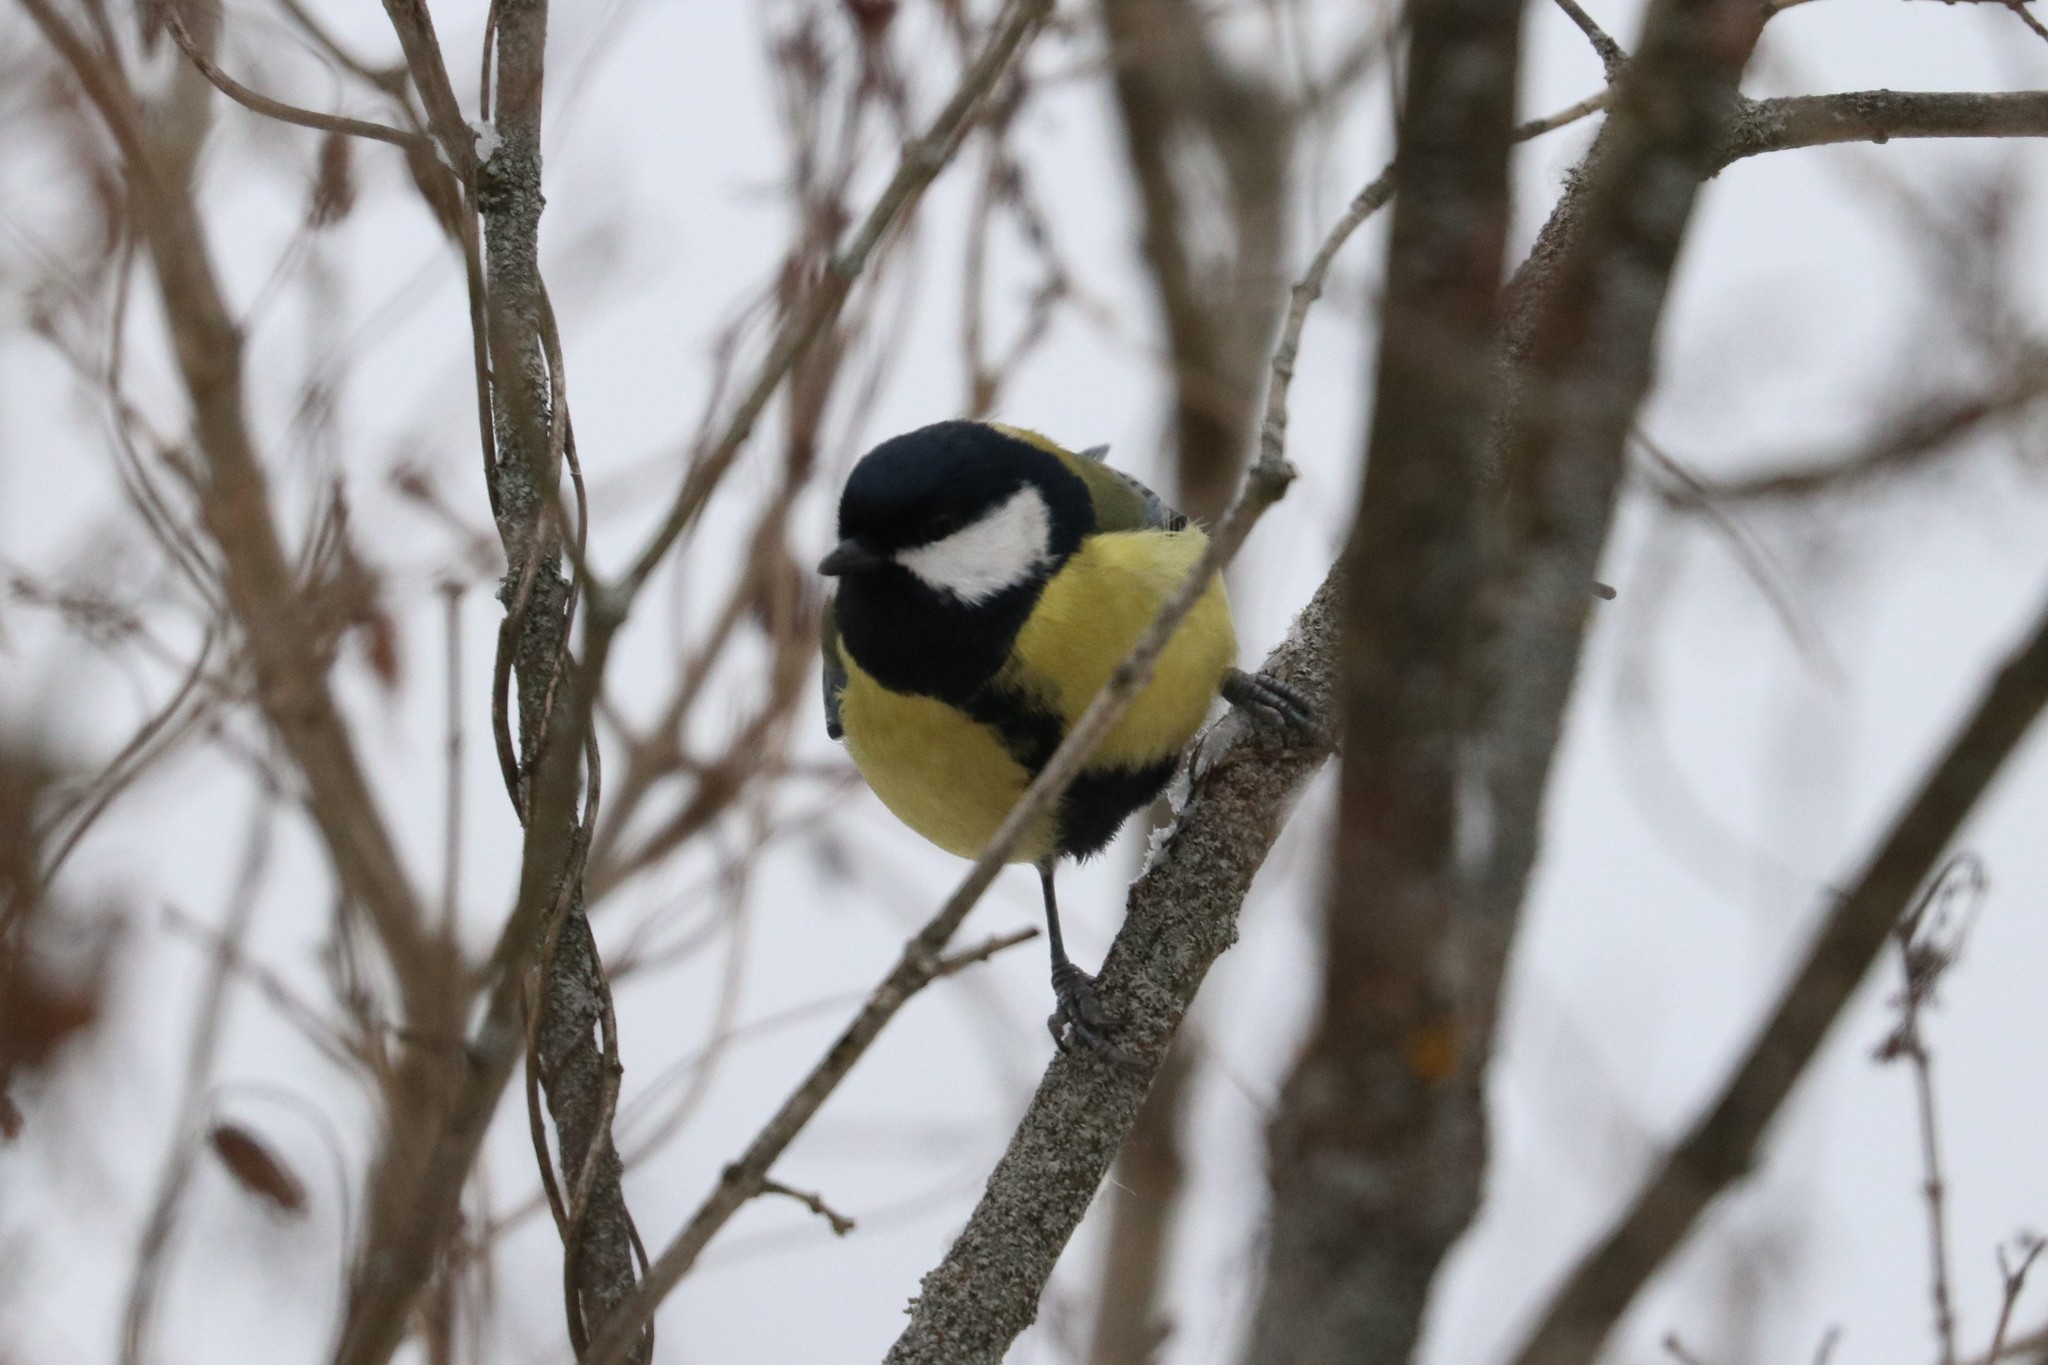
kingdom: Animalia
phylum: Chordata
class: Aves
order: Passeriformes
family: Paridae
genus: Parus
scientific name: Parus major
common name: Great tit
